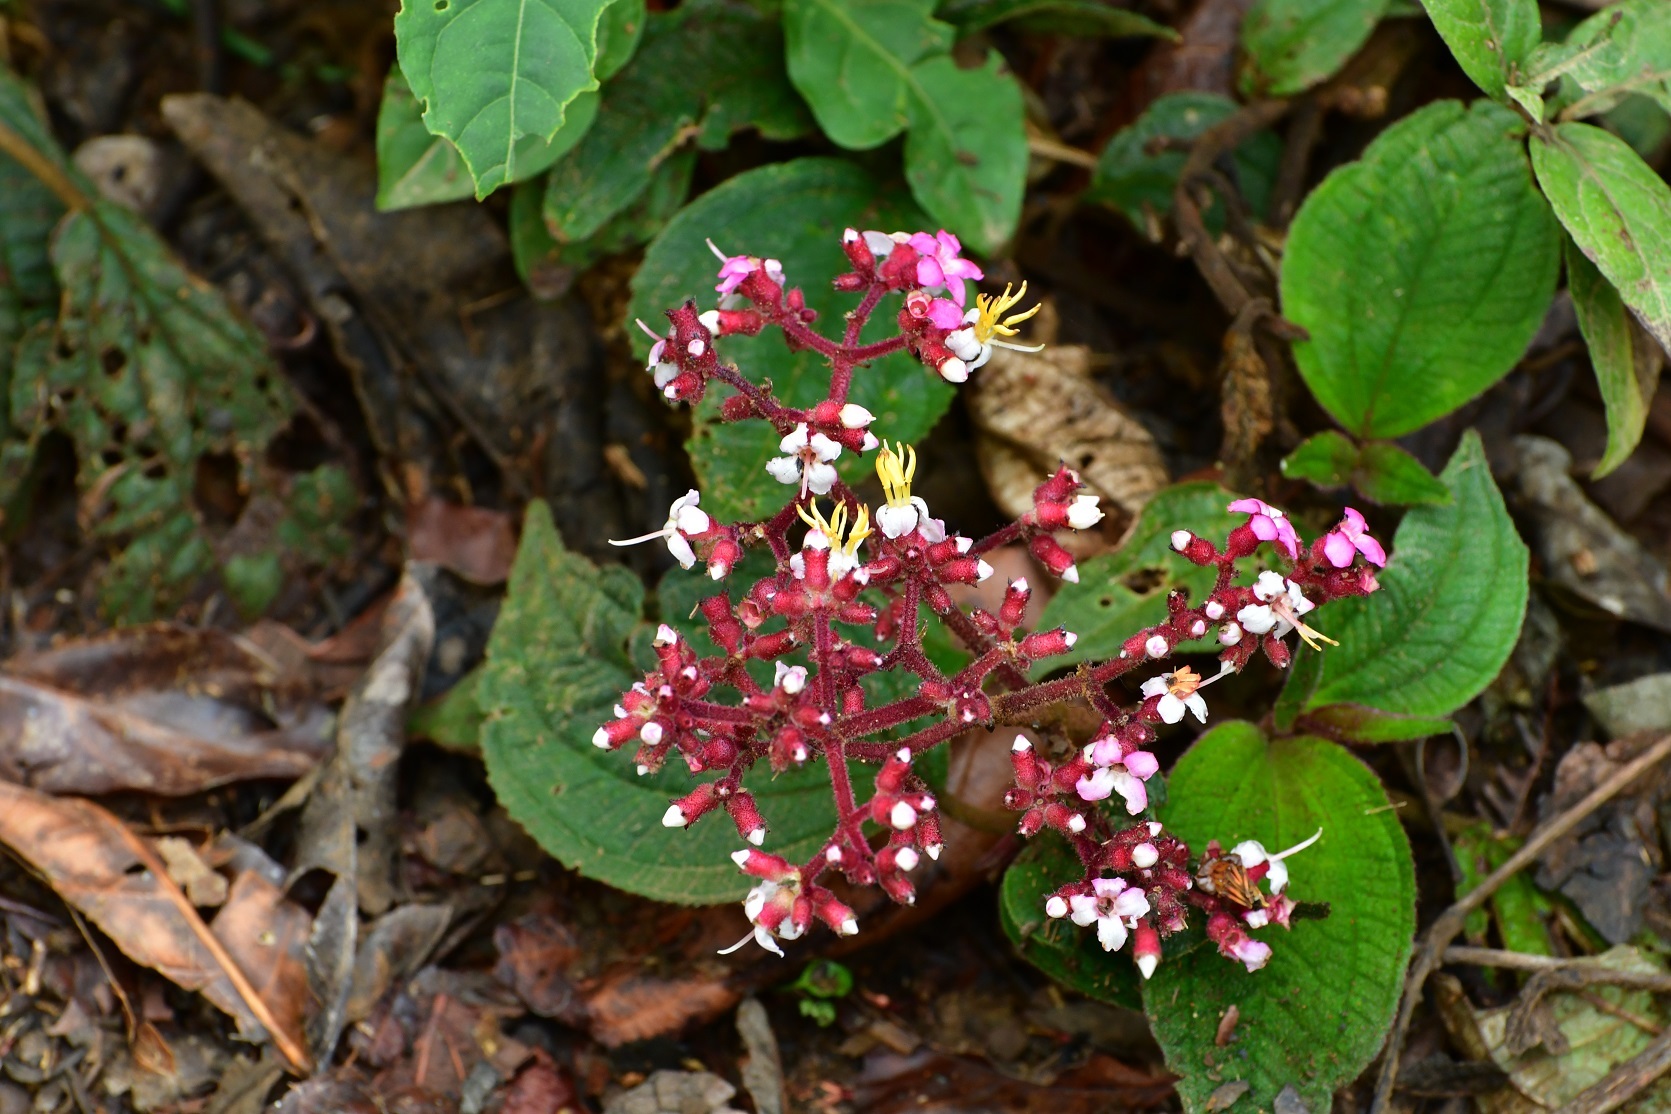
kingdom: Plantae
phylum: Tracheophyta
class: Magnoliopsida
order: Myrtales
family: Melastomataceae
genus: Miconia
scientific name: Miconia guatemalensis
